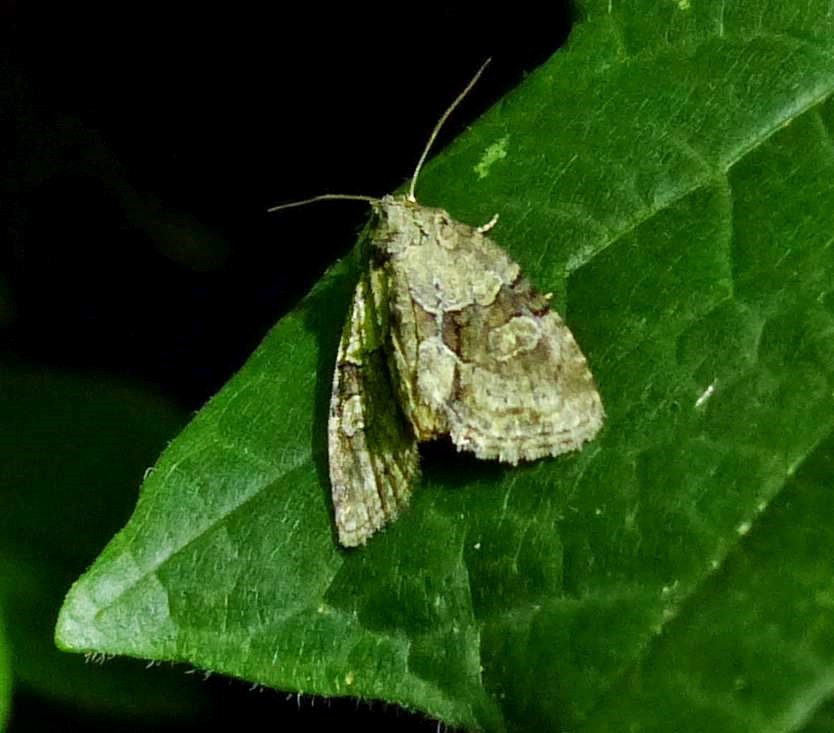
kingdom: Animalia
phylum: Arthropoda
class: Insecta
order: Lepidoptera
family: Noctuidae
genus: Neoligia
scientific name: Neoligia exhausta
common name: Exhausted brocade
